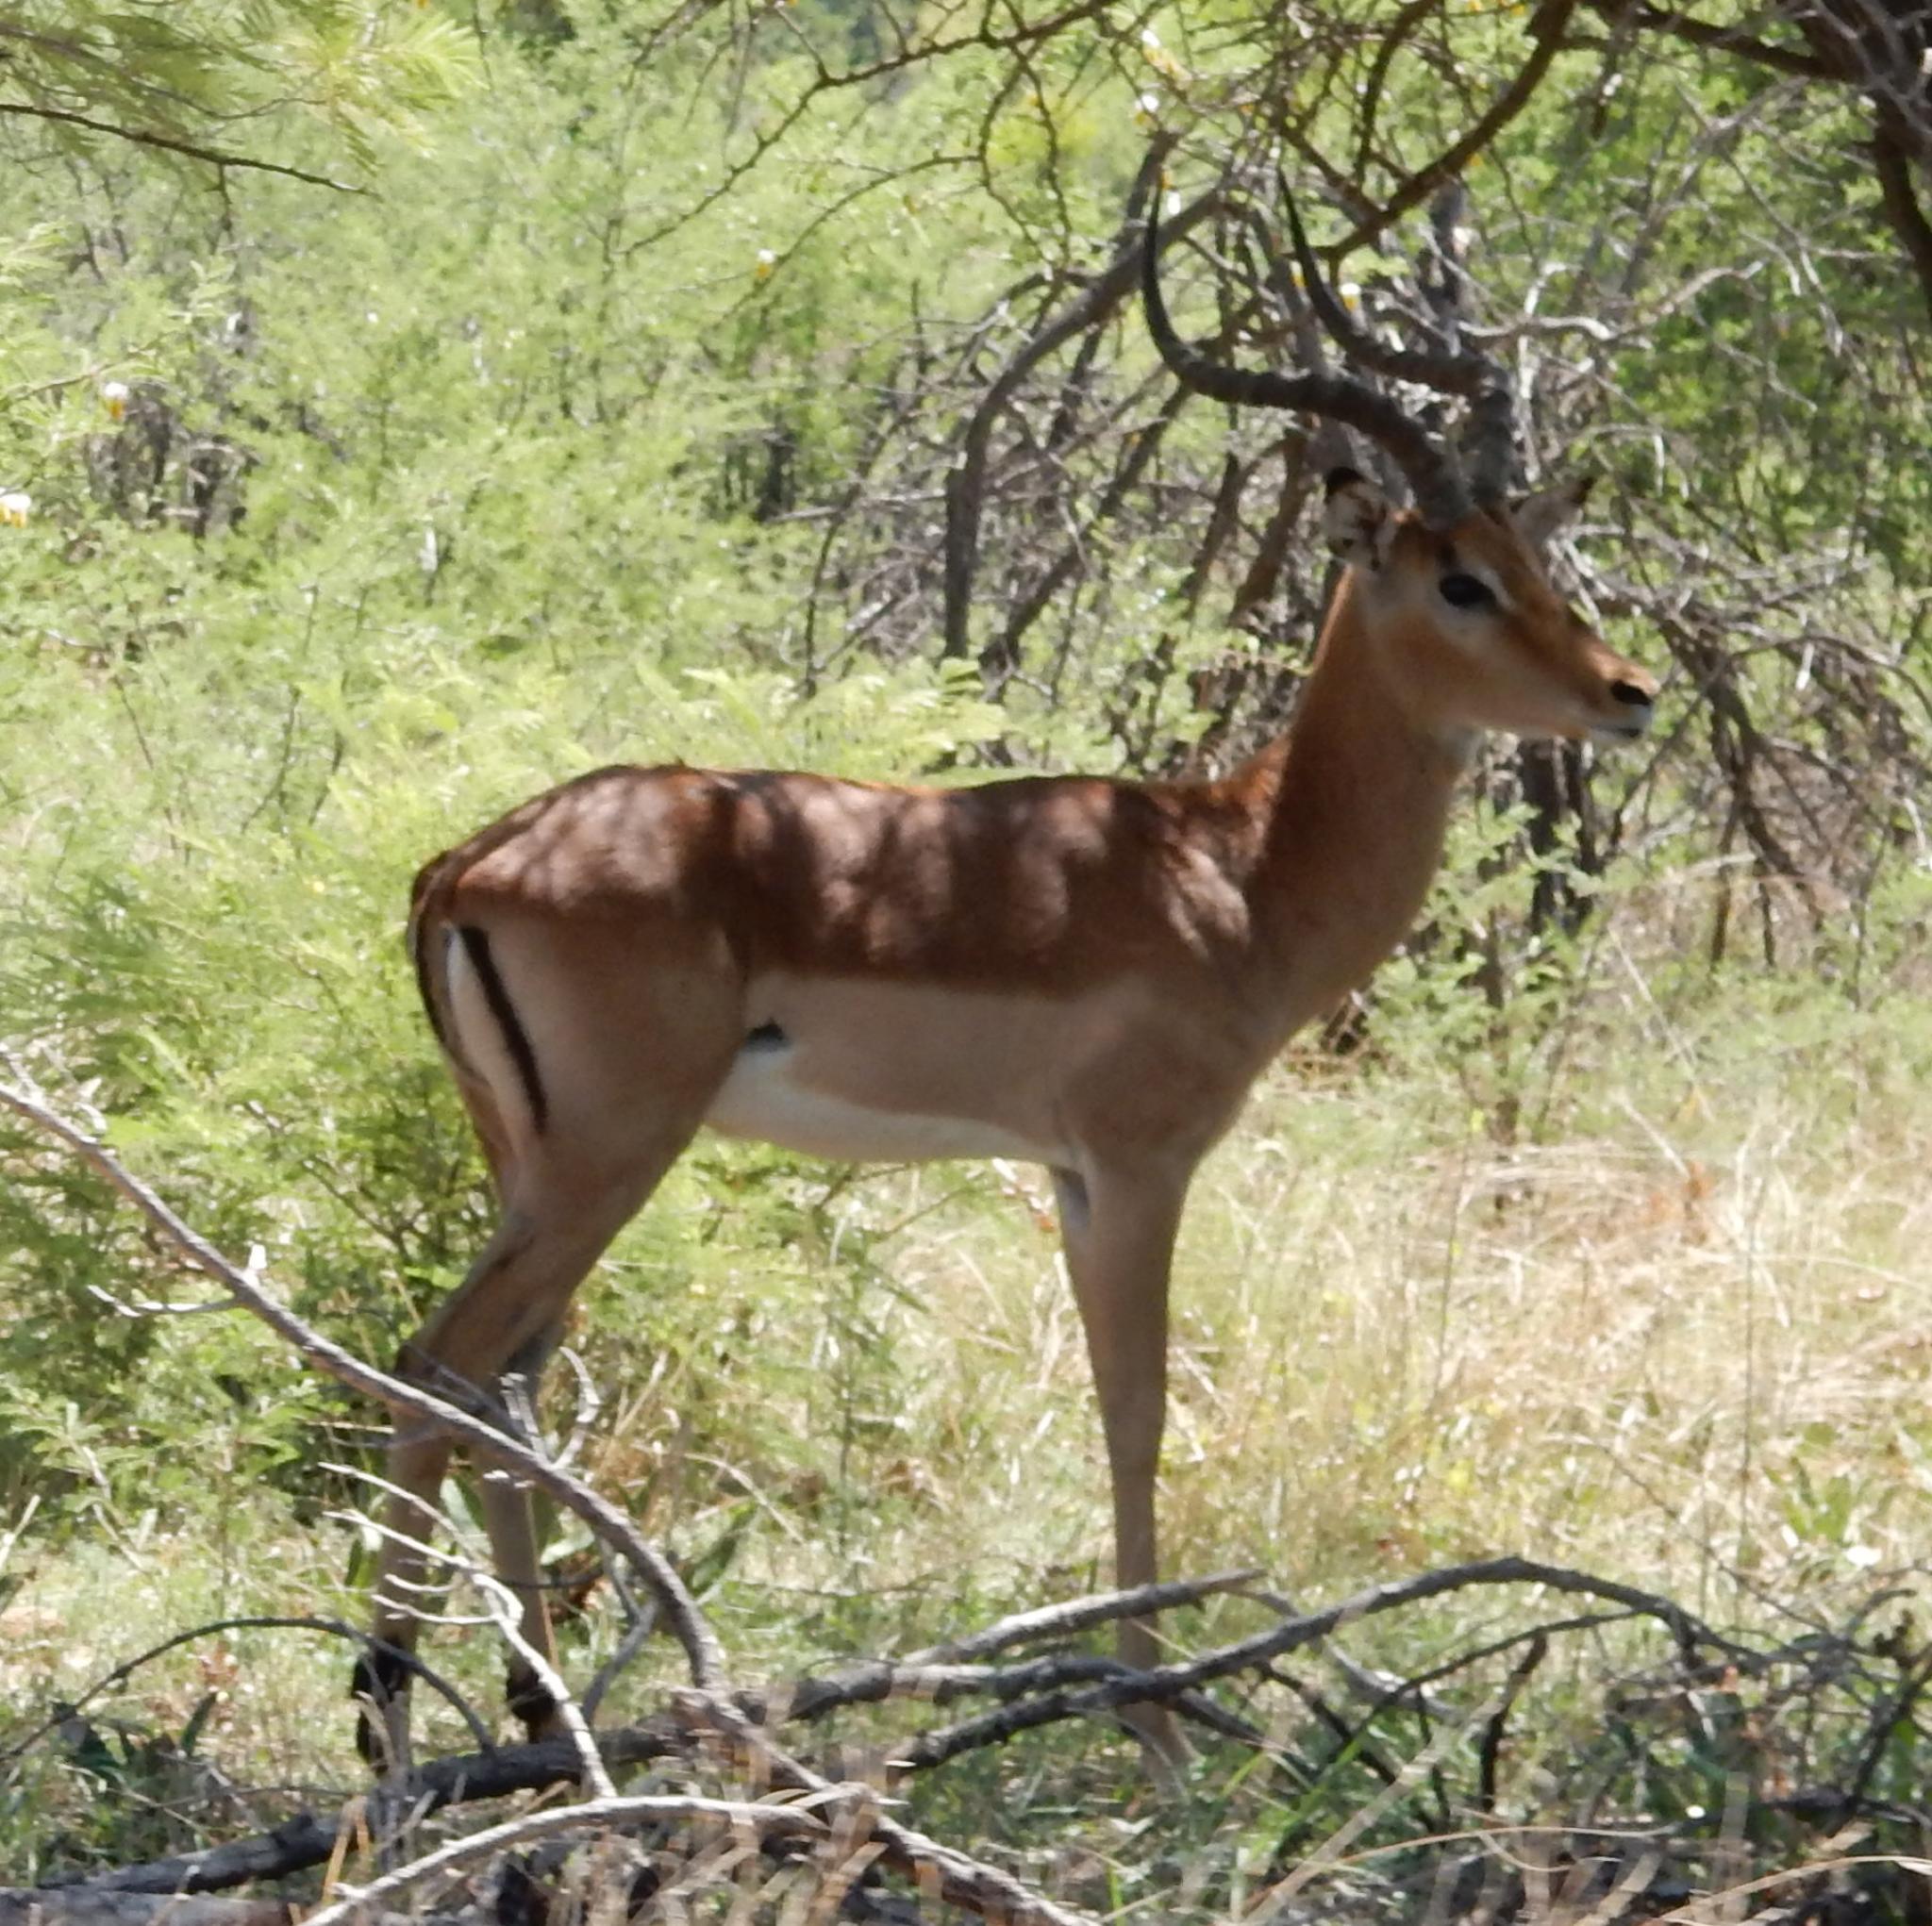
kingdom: Animalia
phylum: Chordata
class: Mammalia
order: Artiodactyla
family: Bovidae
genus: Aepyceros
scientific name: Aepyceros melampus
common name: Impala
